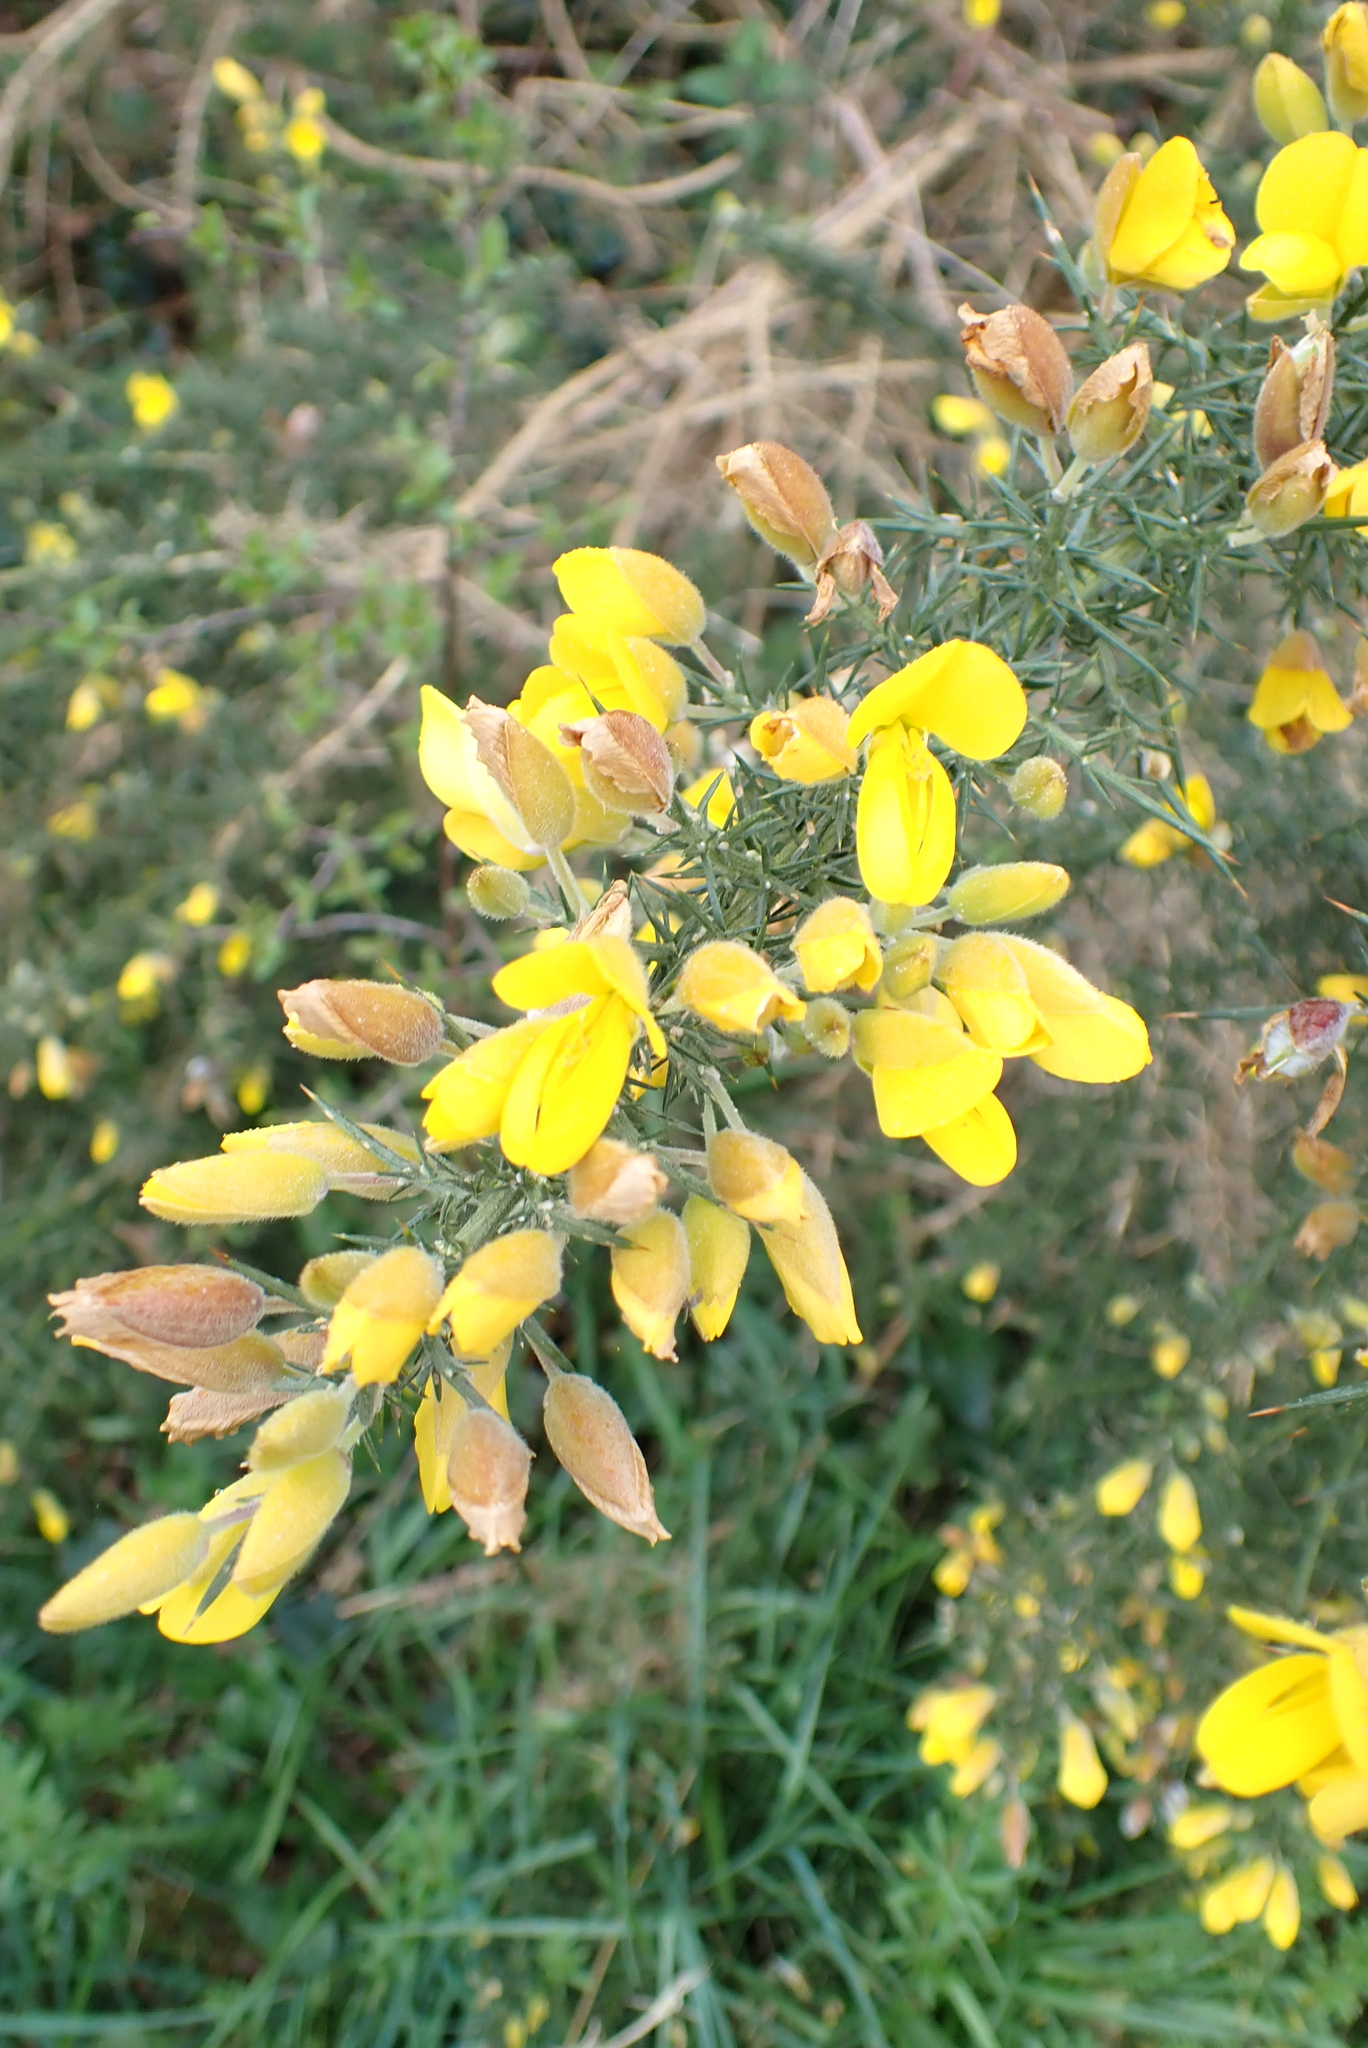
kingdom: Plantae
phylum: Tracheophyta
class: Magnoliopsida
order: Fabales
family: Fabaceae
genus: Ulex
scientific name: Ulex europaeus
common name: Common gorse
